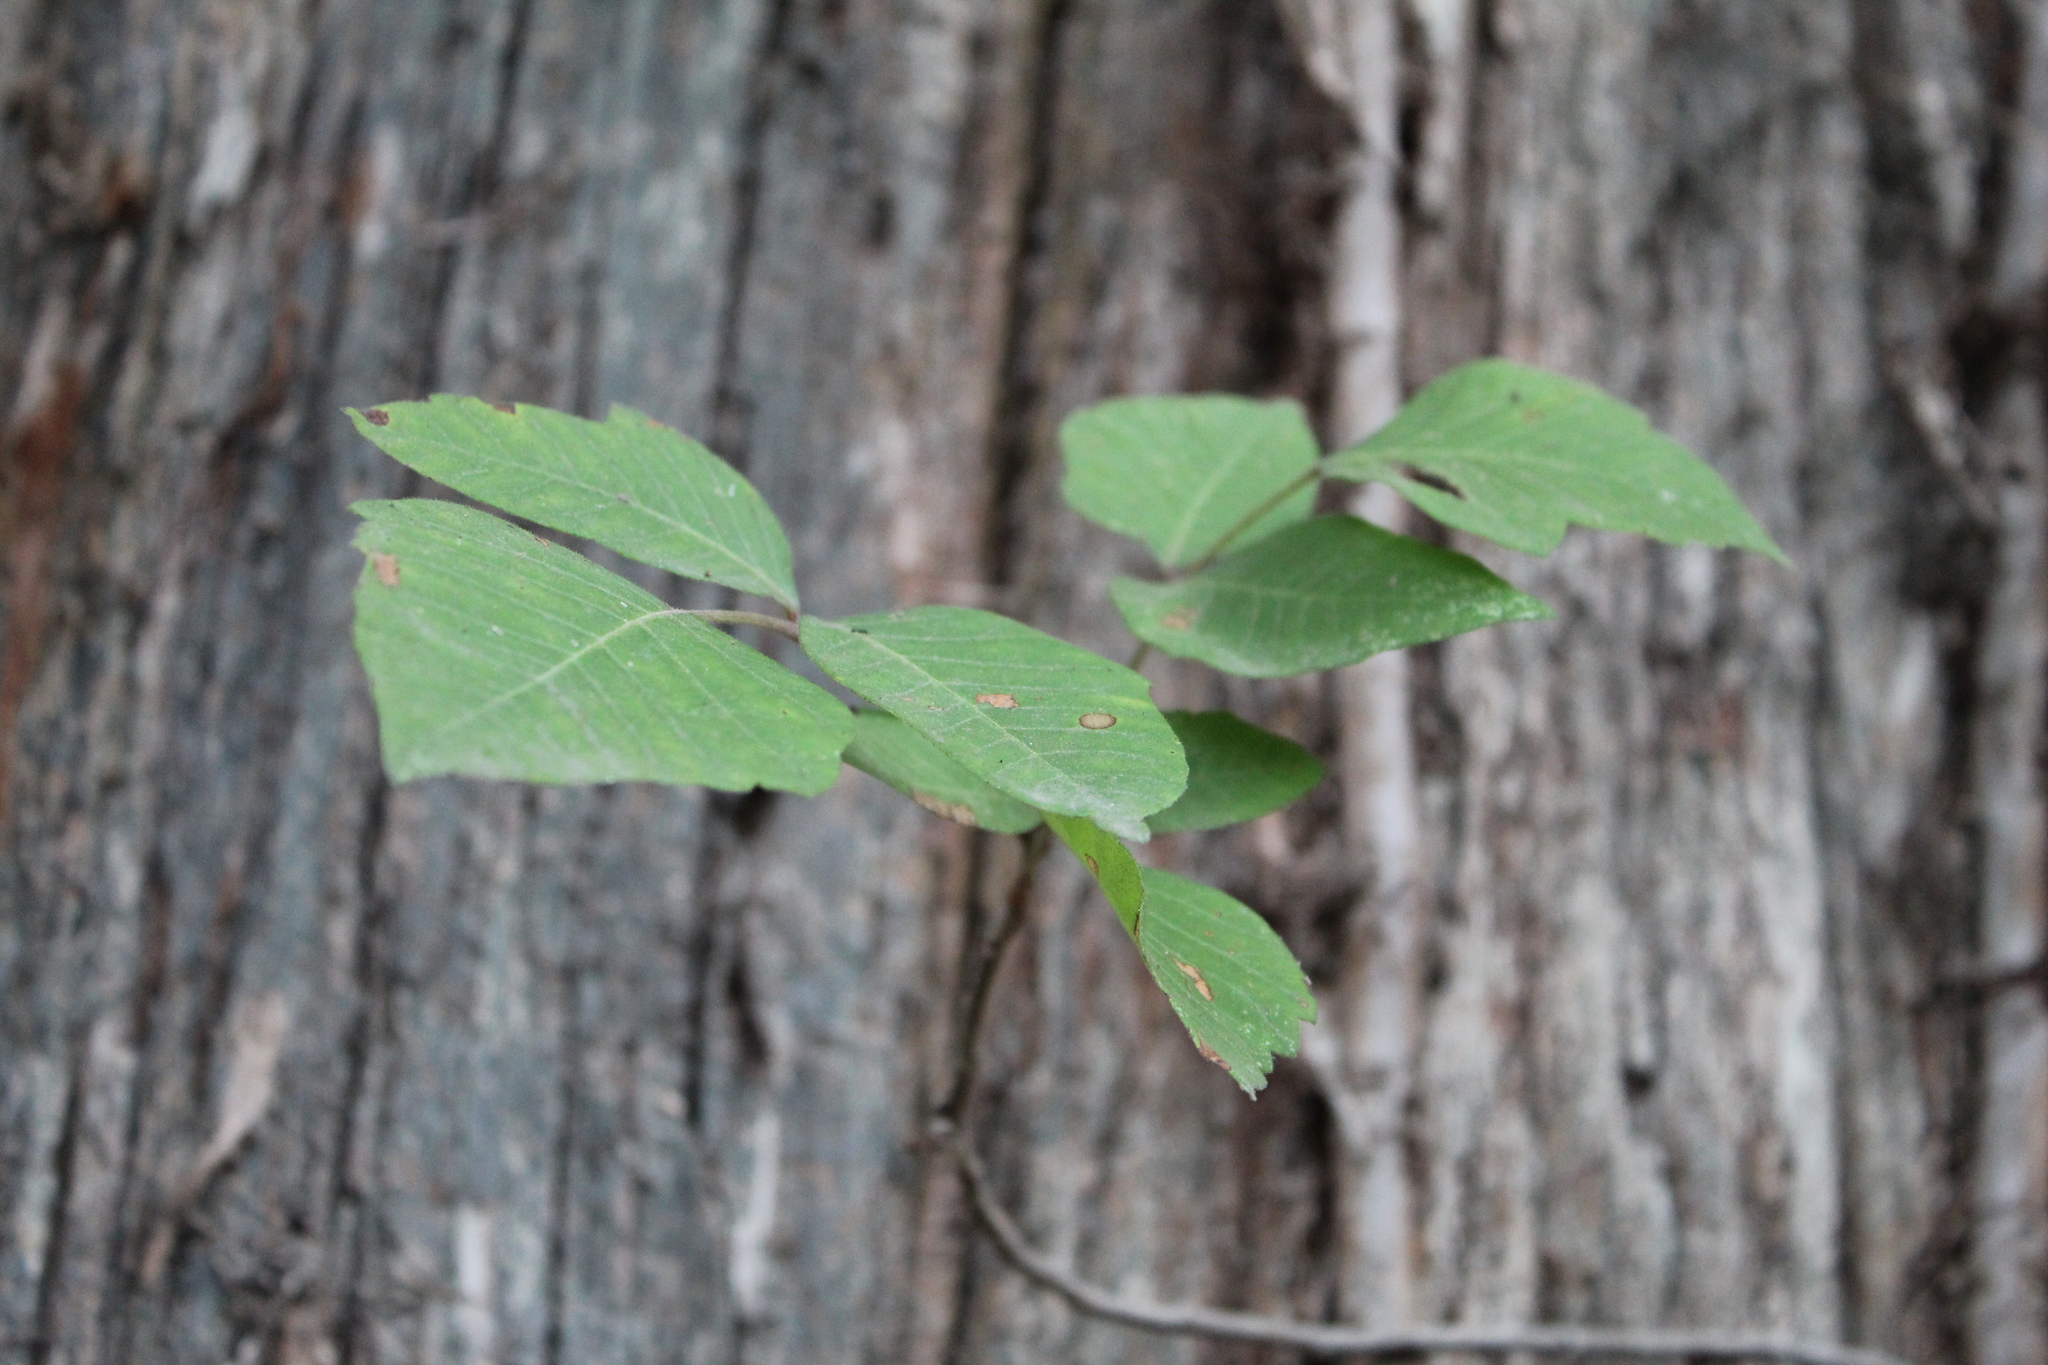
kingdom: Plantae
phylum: Tracheophyta
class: Magnoliopsida
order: Sapindales
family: Anacardiaceae
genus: Toxicodendron
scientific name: Toxicodendron radicans
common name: Poison ivy
